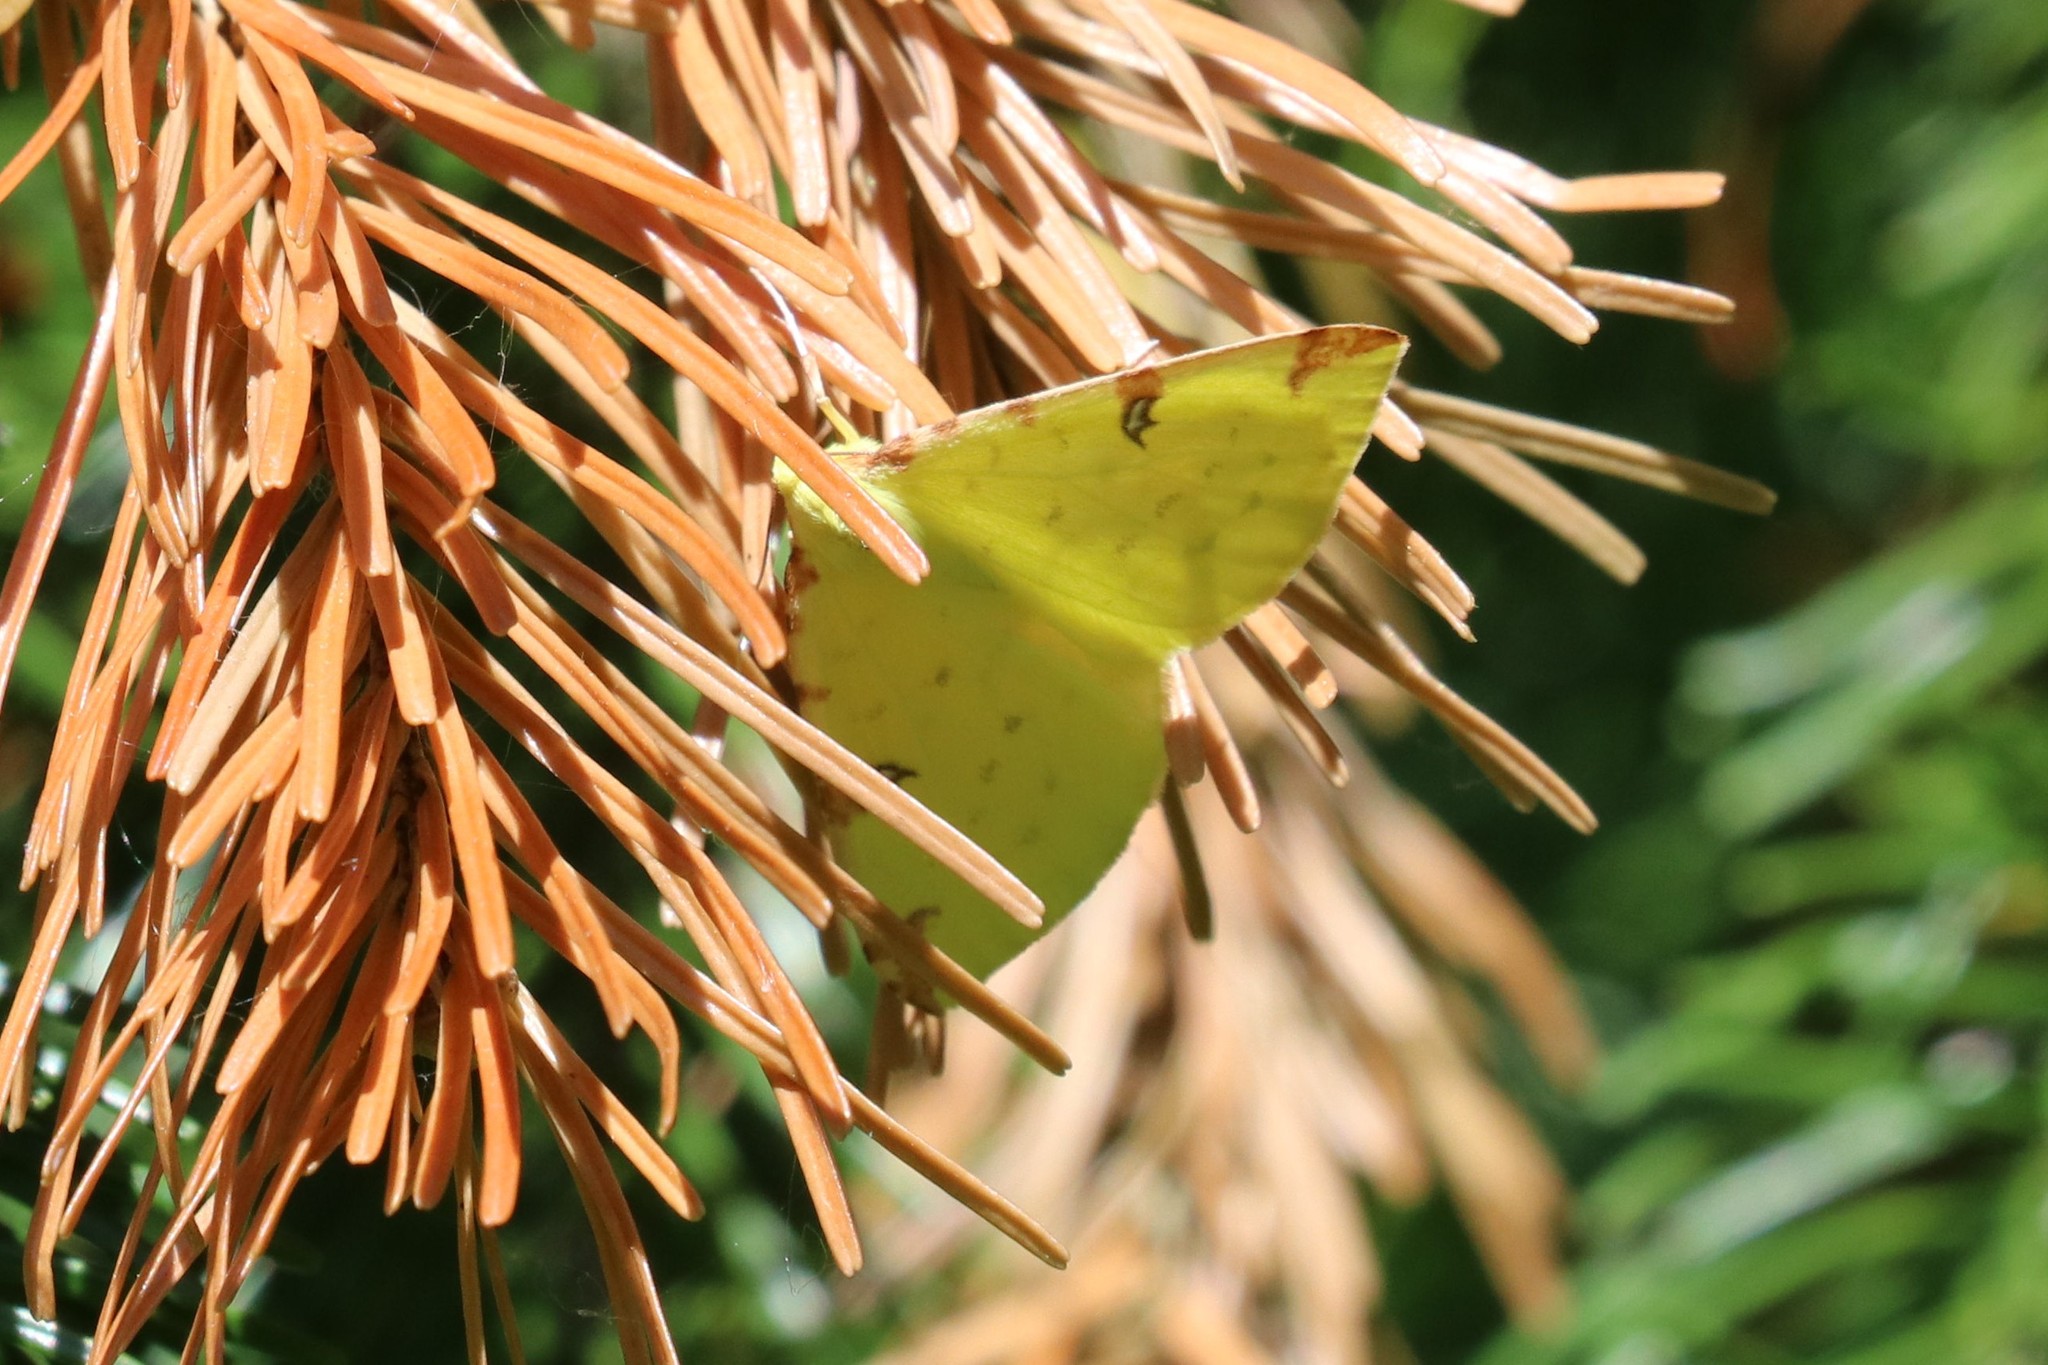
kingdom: Animalia
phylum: Arthropoda
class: Insecta
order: Lepidoptera
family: Geometridae
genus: Opisthograptis
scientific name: Opisthograptis luteolata
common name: Brimstone moth
